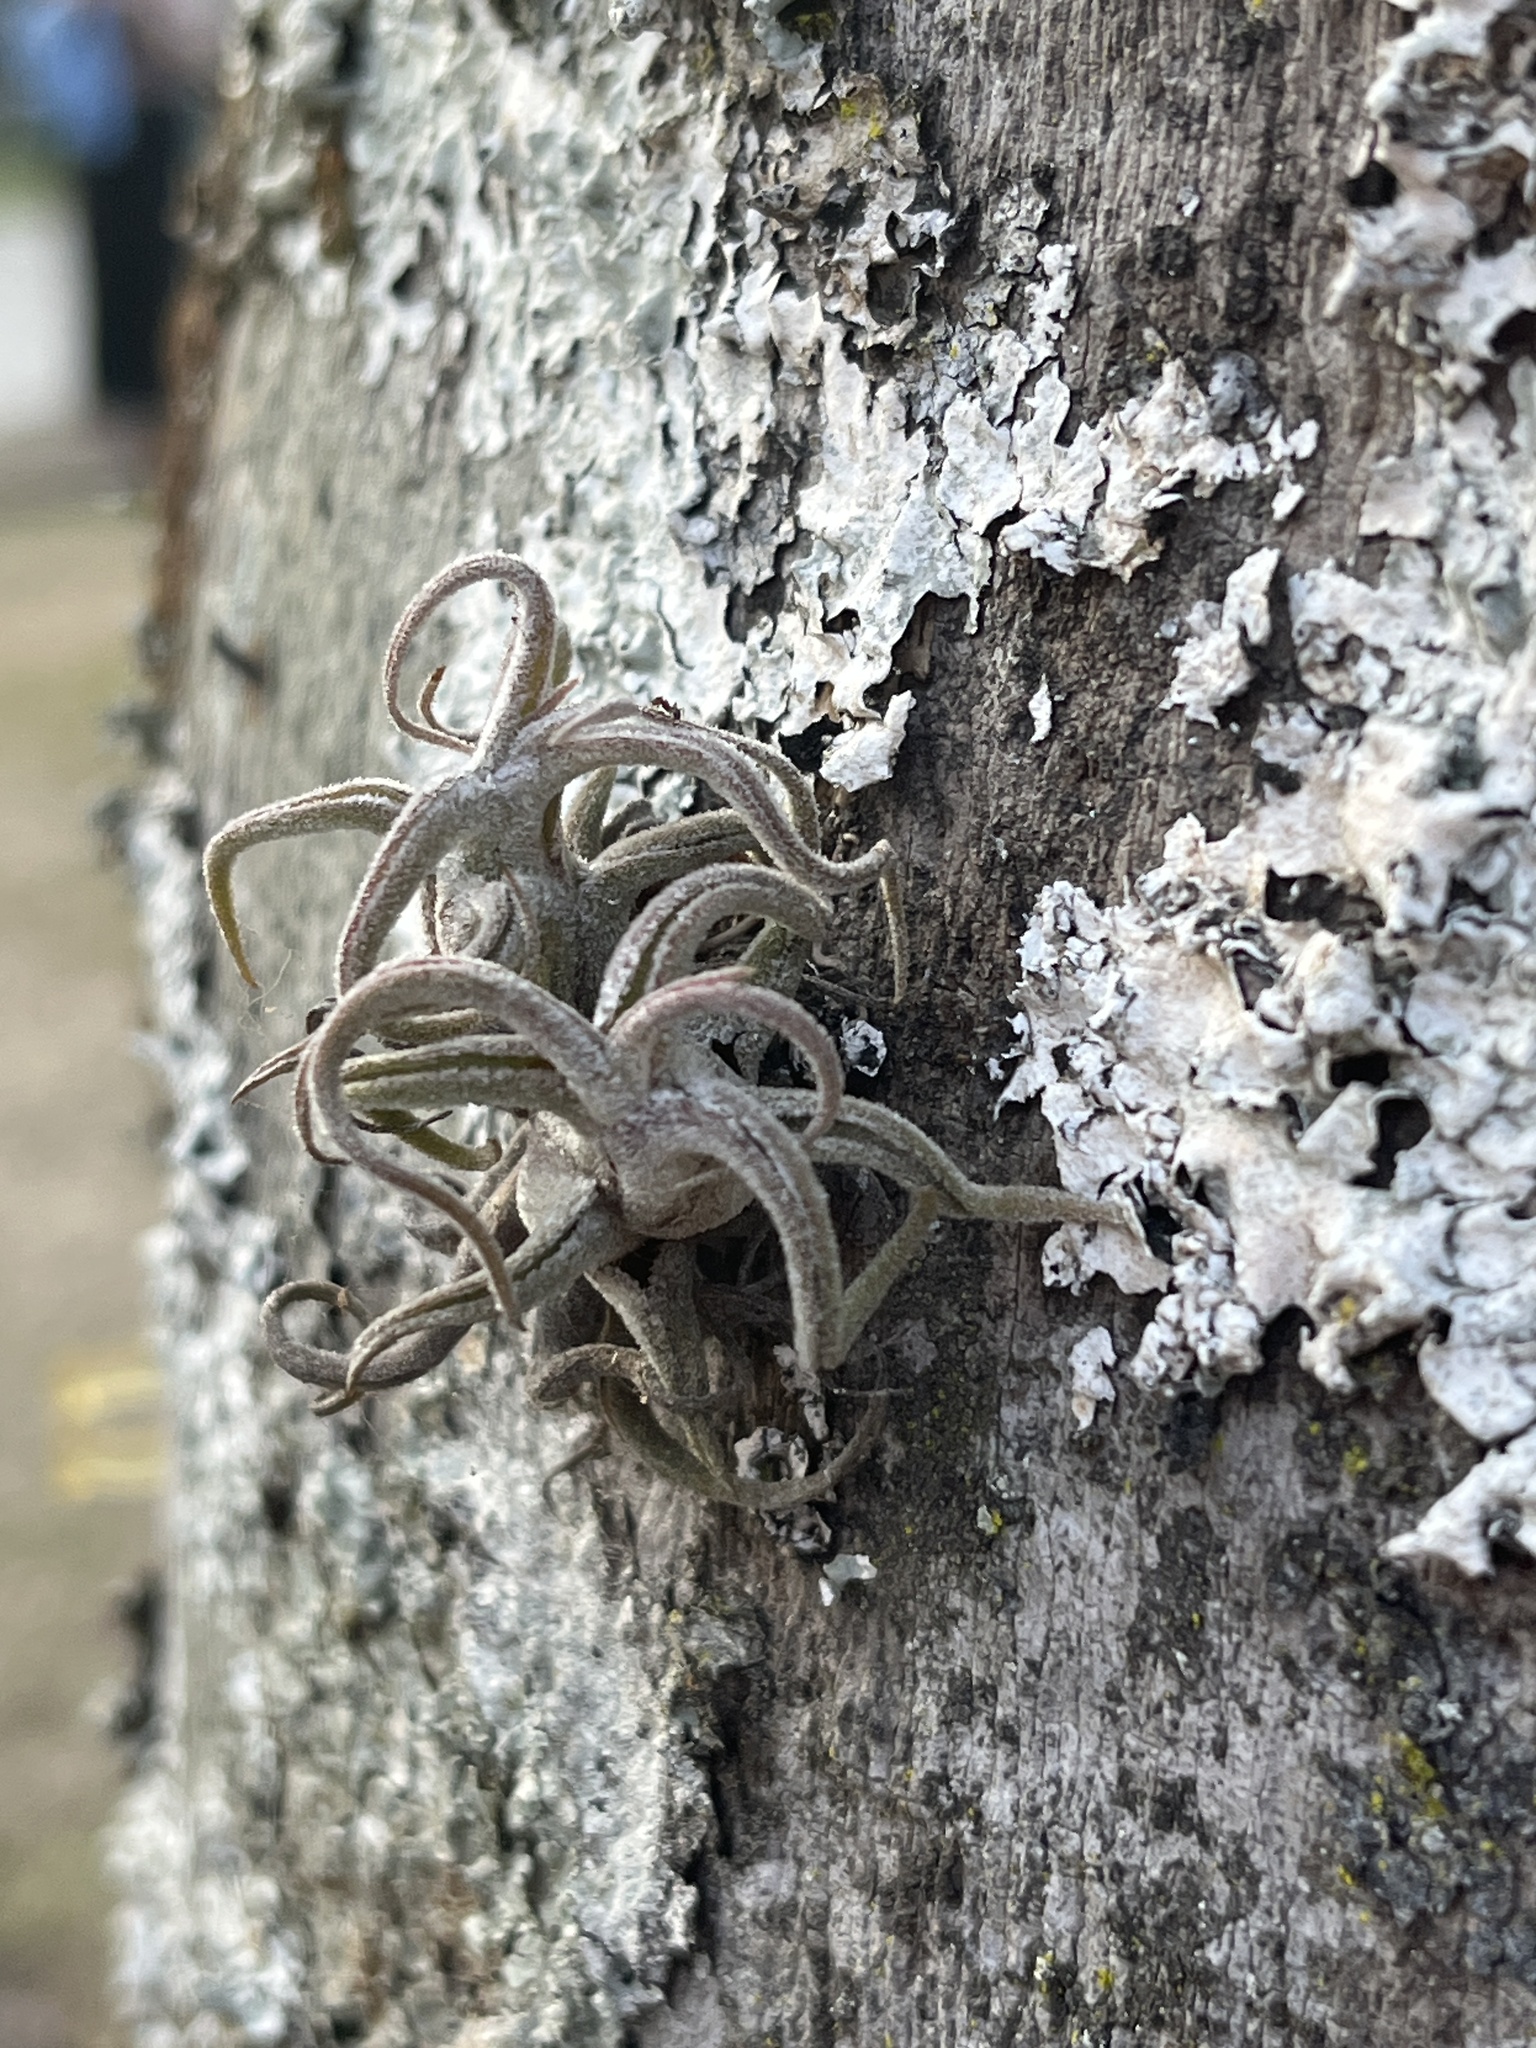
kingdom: Plantae
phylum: Tracheophyta
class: Liliopsida
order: Poales
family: Bromeliaceae
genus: Tillandsia
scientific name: Tillandsia caput-medusae
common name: Octopus plant
